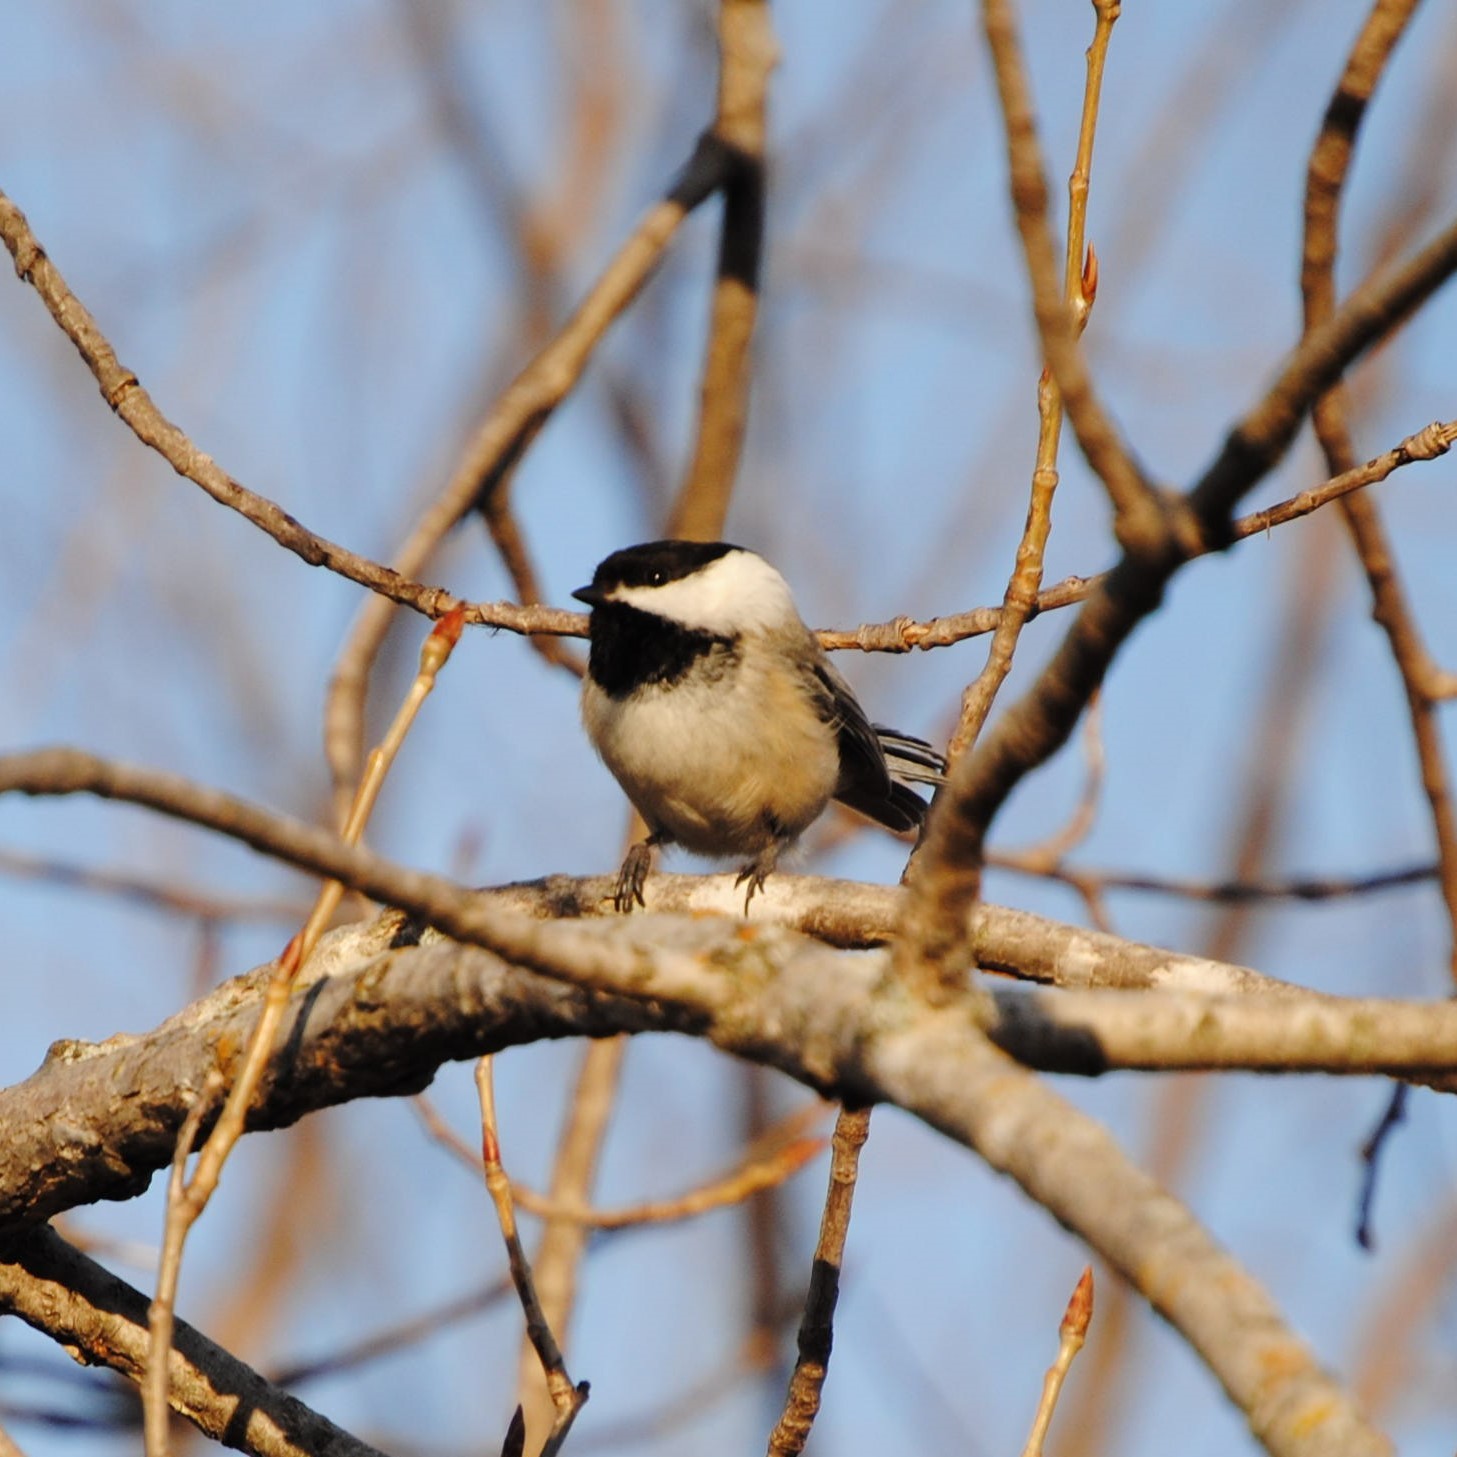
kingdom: Animalia
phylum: Chordata
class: Aves
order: Passeriformes
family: Paridae
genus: Poecile
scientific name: Poecile atricapillus
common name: Black-capped chickadee
